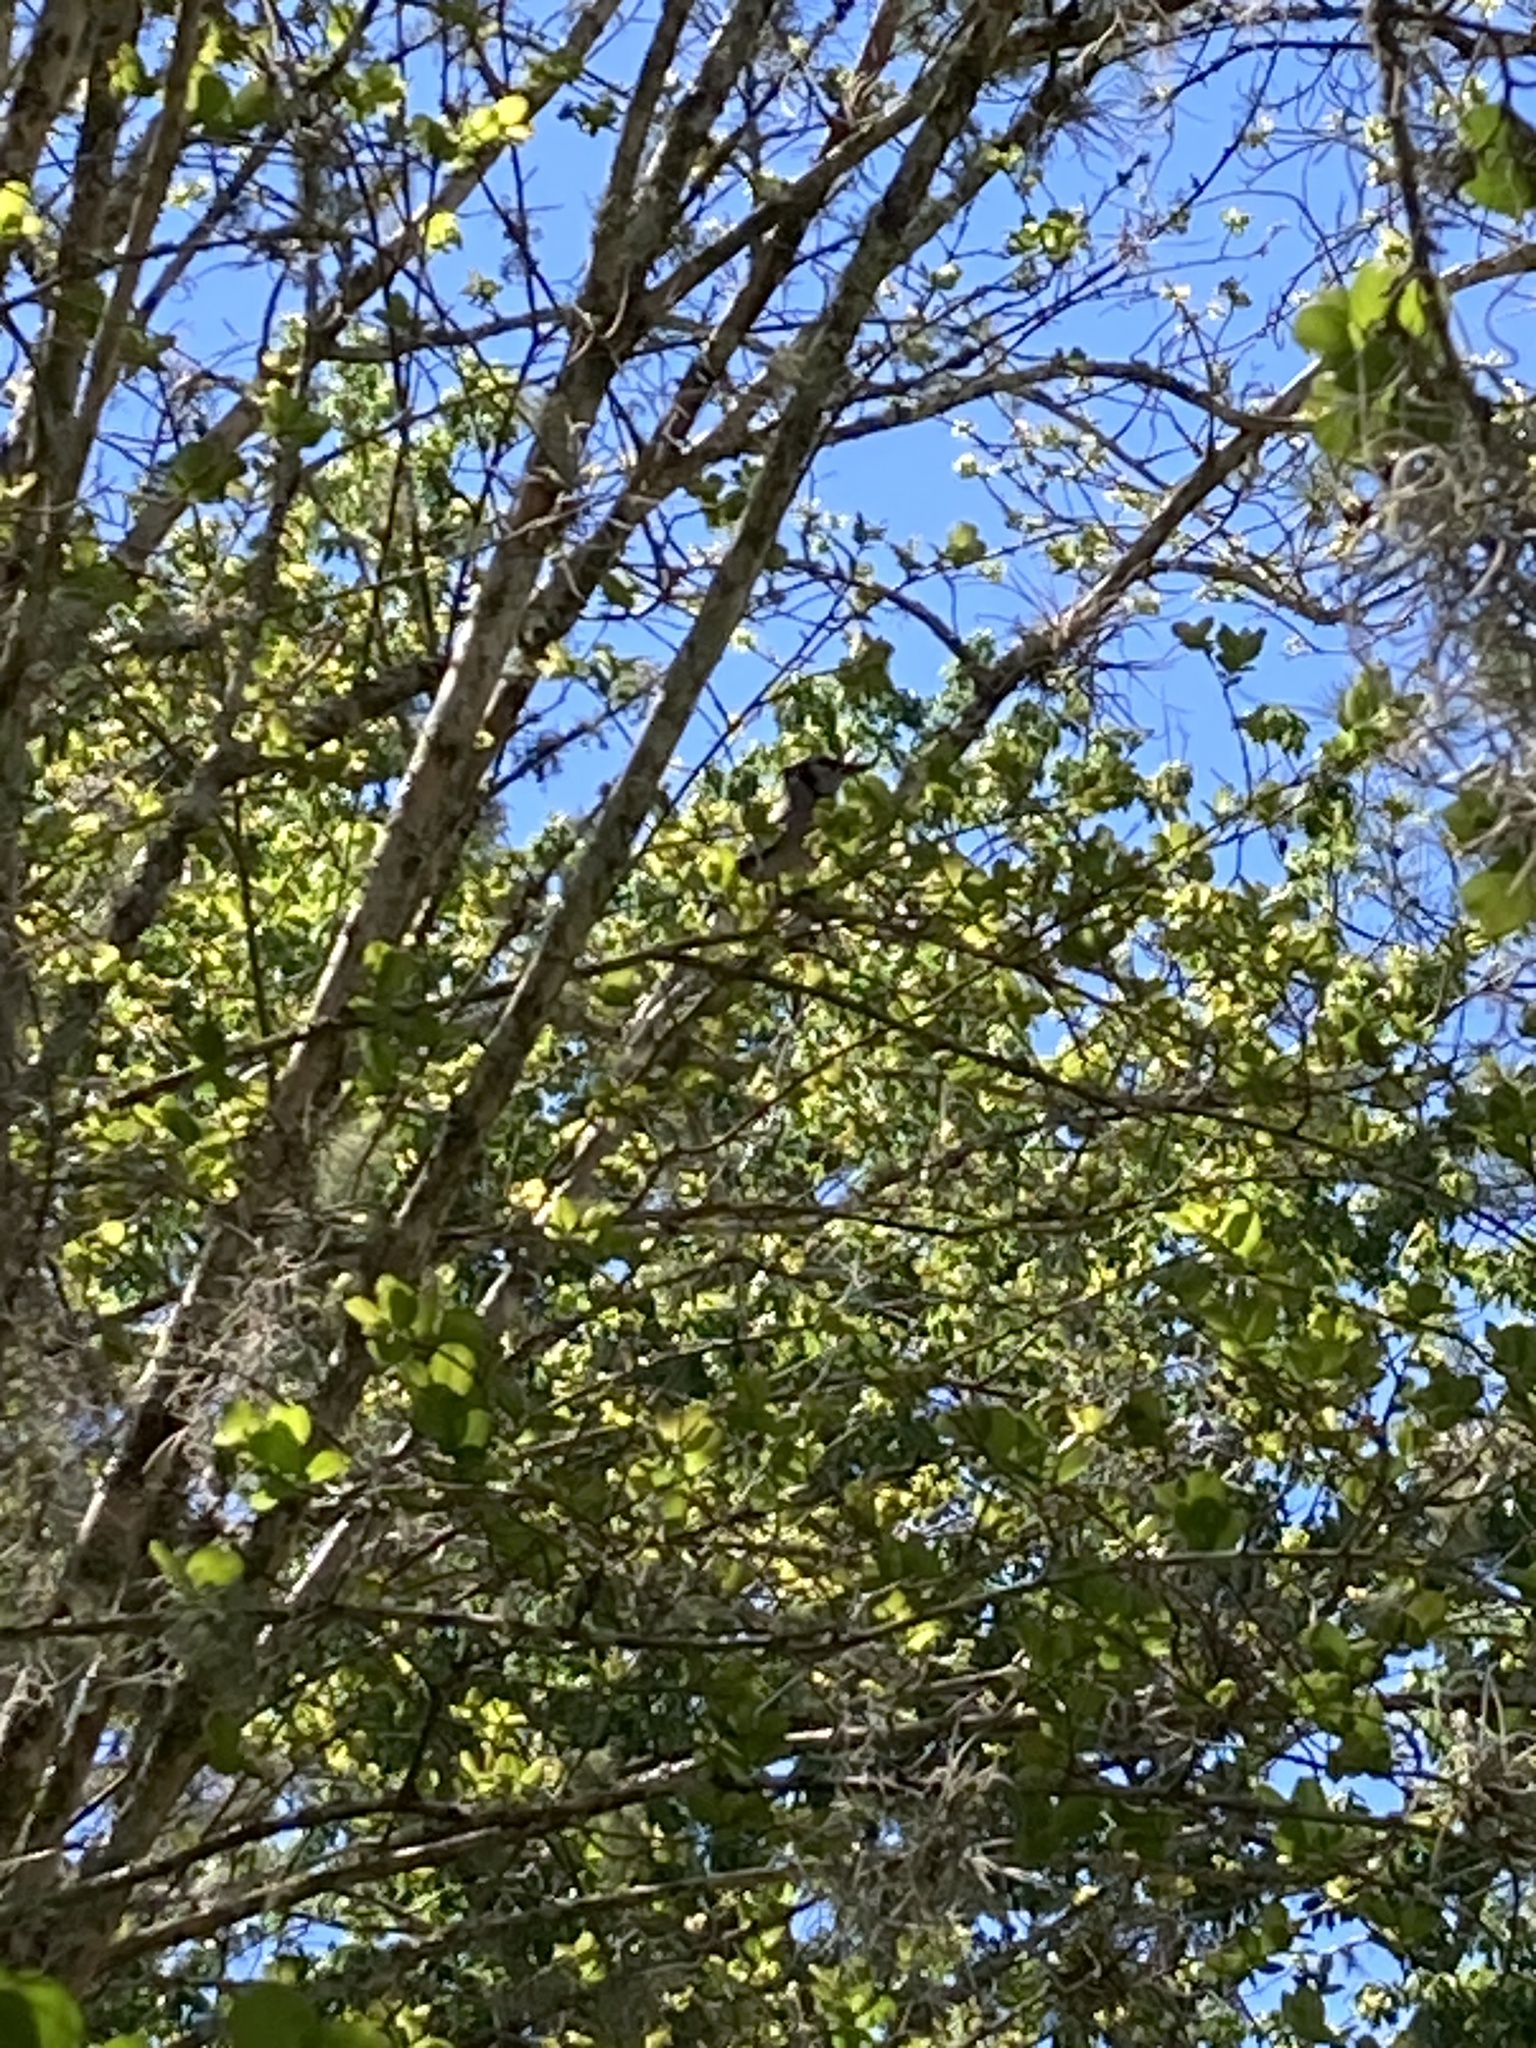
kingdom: Animalia
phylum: Chordata
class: Aves
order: Passeriformes
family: Corvidae
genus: Cyanocitta
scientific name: Cyanocitta cristata
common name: Blue jay
